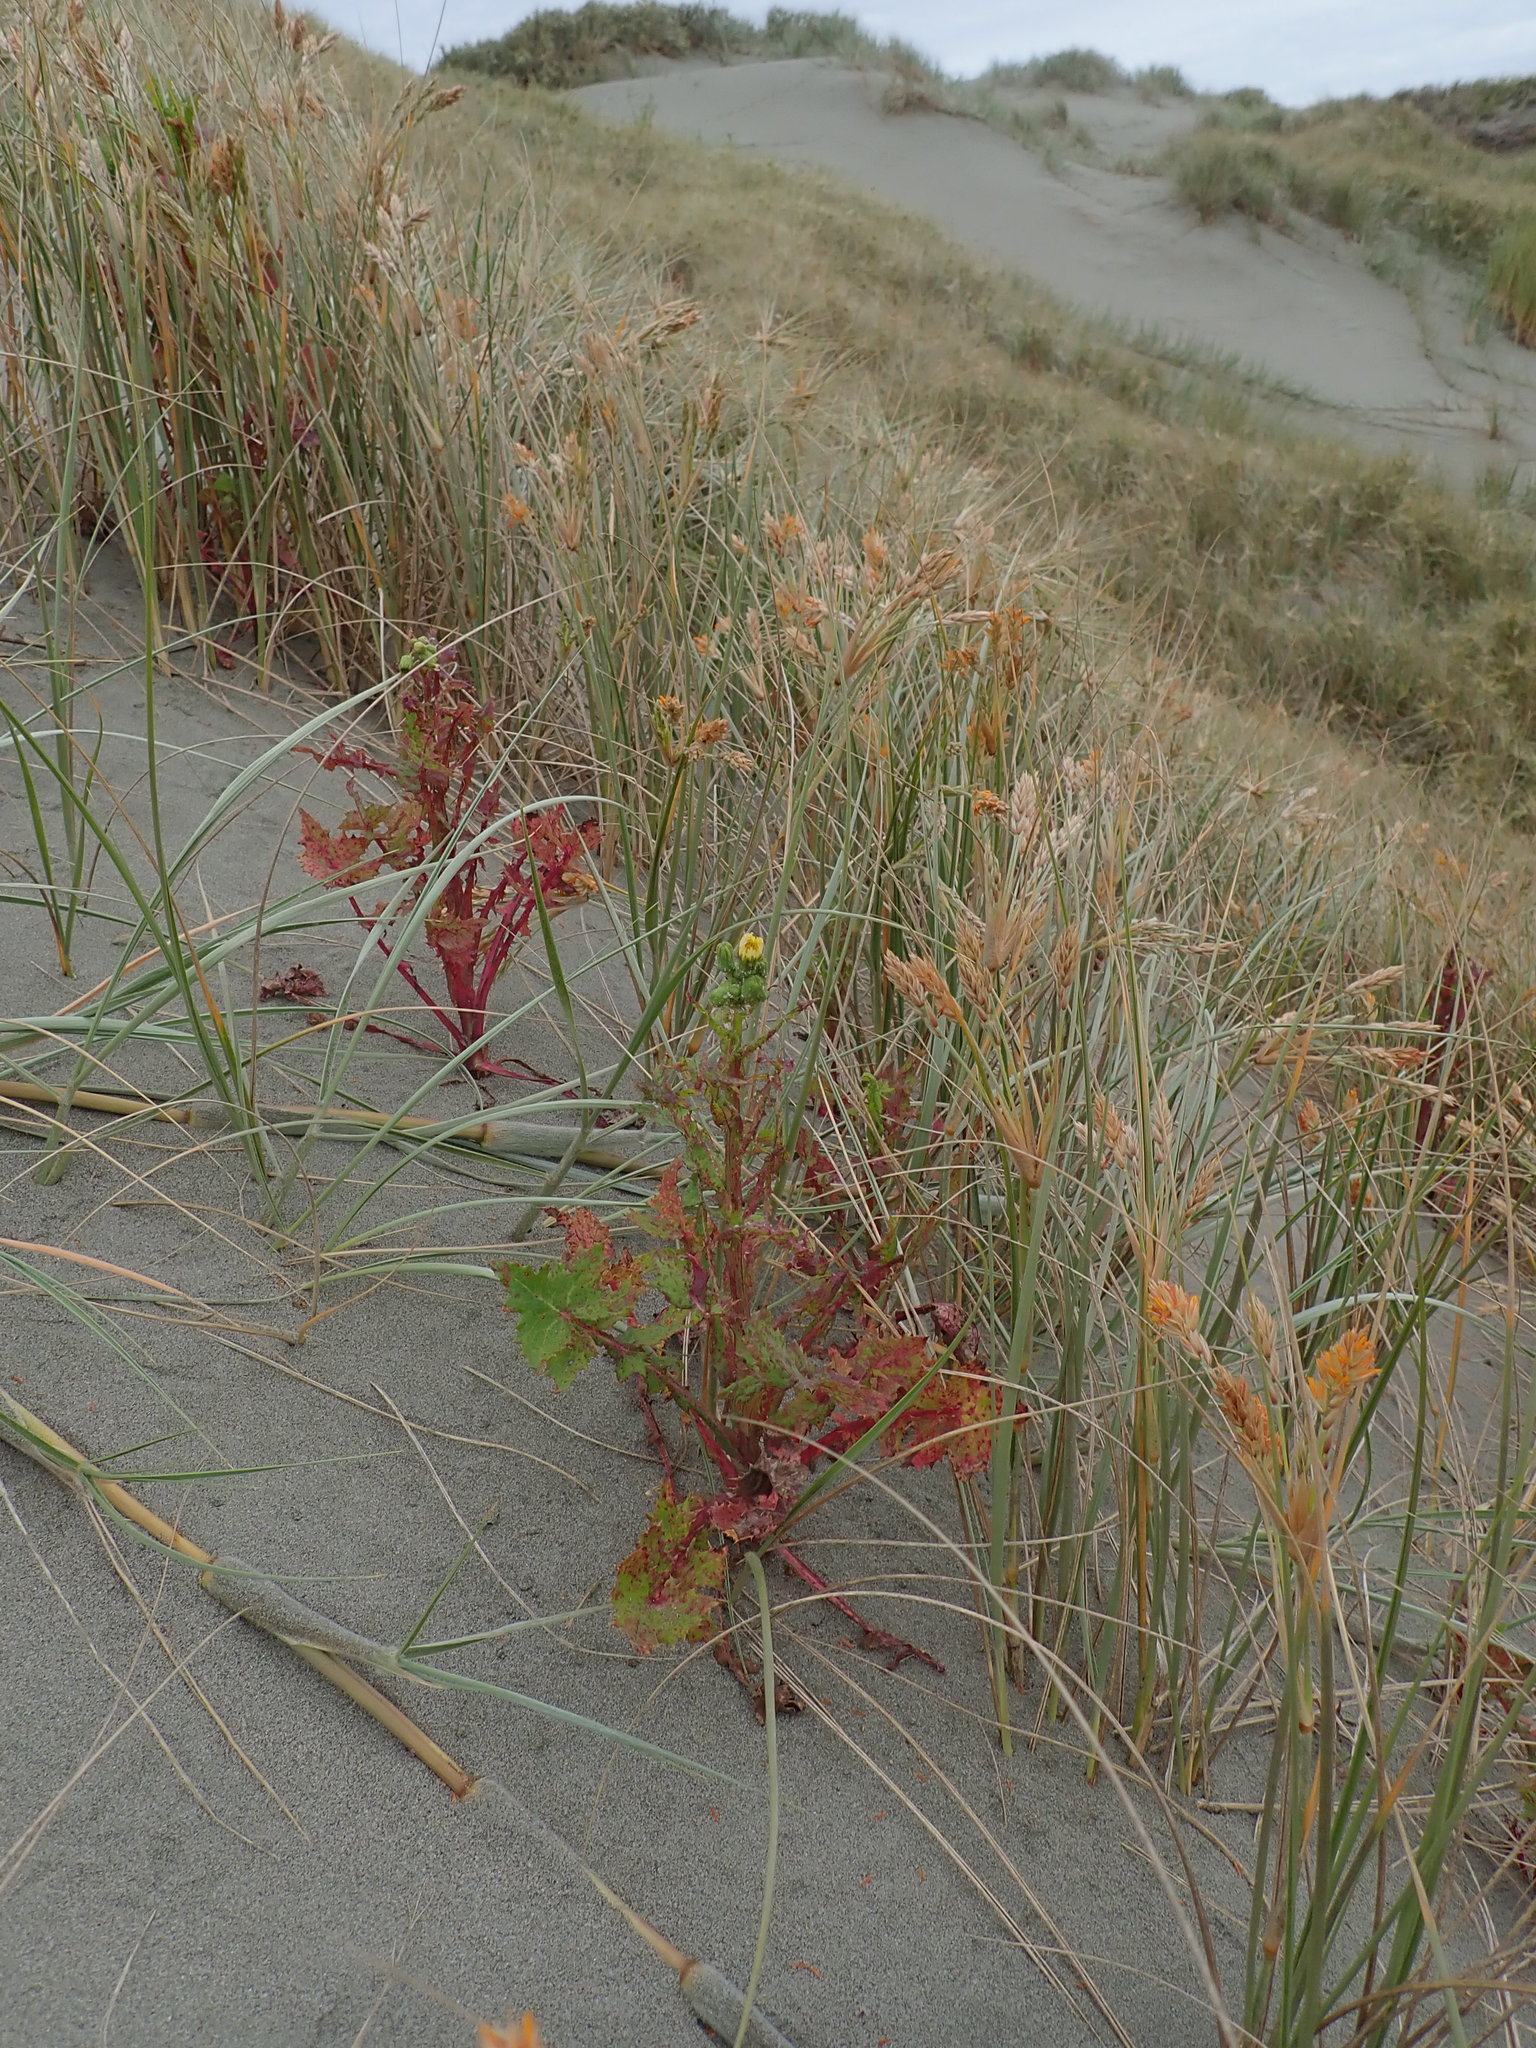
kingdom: Plantae
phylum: Tracheophyta
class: Magnoliopsida
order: Asterales
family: Asteraceae
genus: Sonchus
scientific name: Sonchus oleraceus
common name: Common sowthistle
